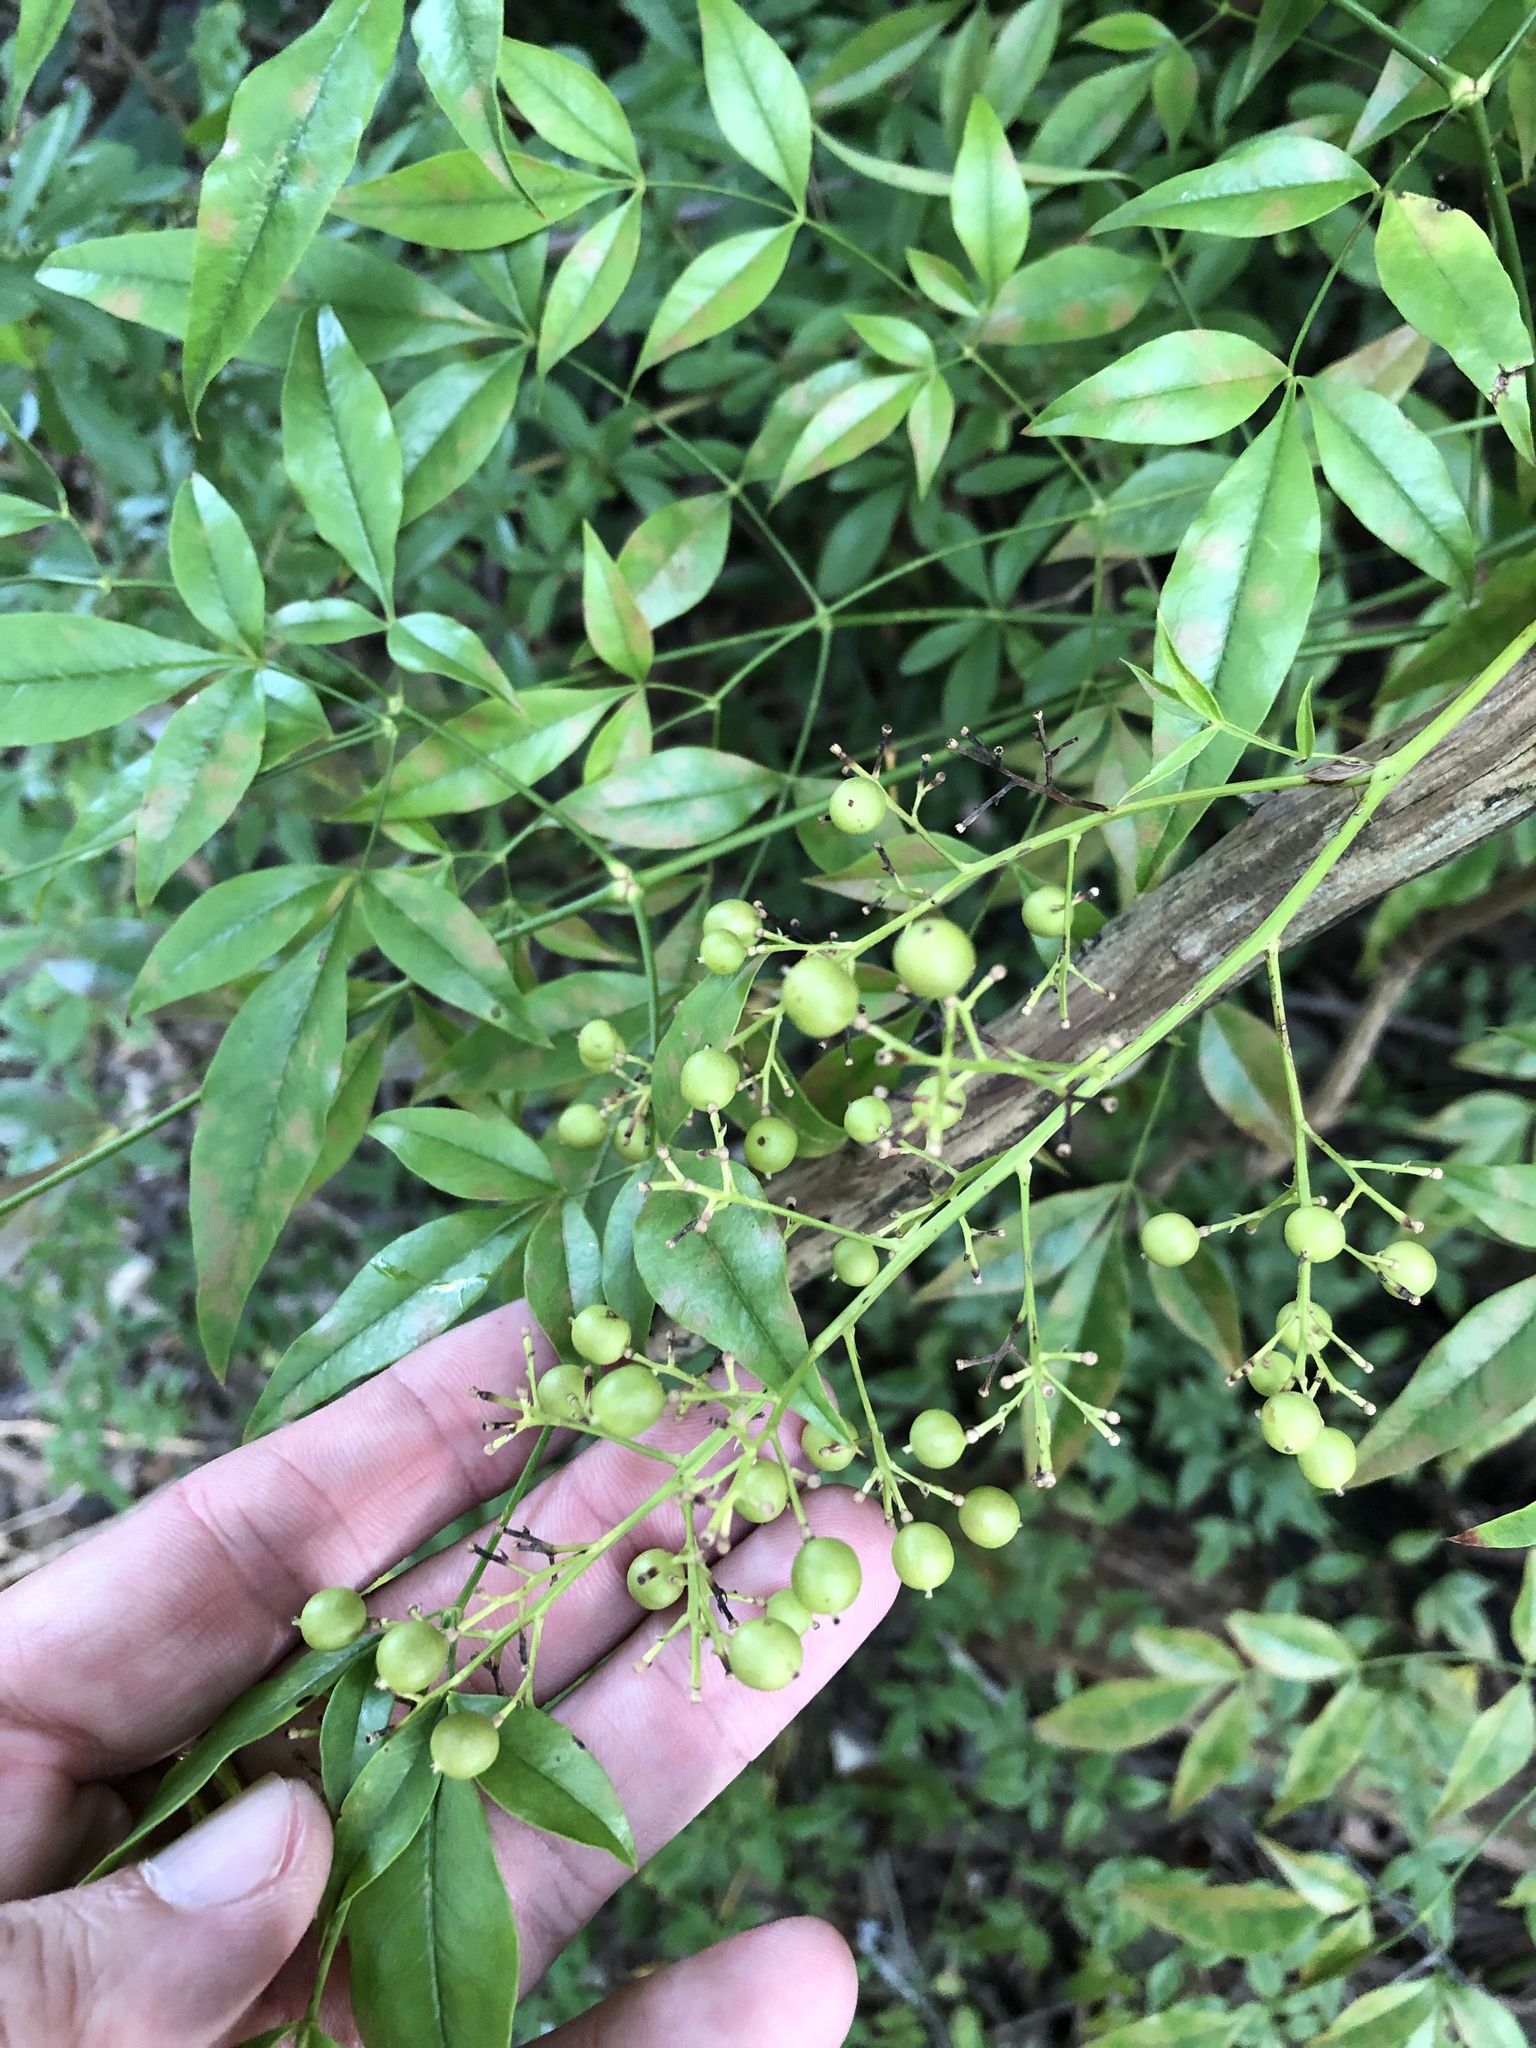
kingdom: Plantae
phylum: Tracheophyta
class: Magnoliopsida
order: Ranunculales
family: Berberidaceae
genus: Nandina
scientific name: Nandina domestica
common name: Sacred bamboo
